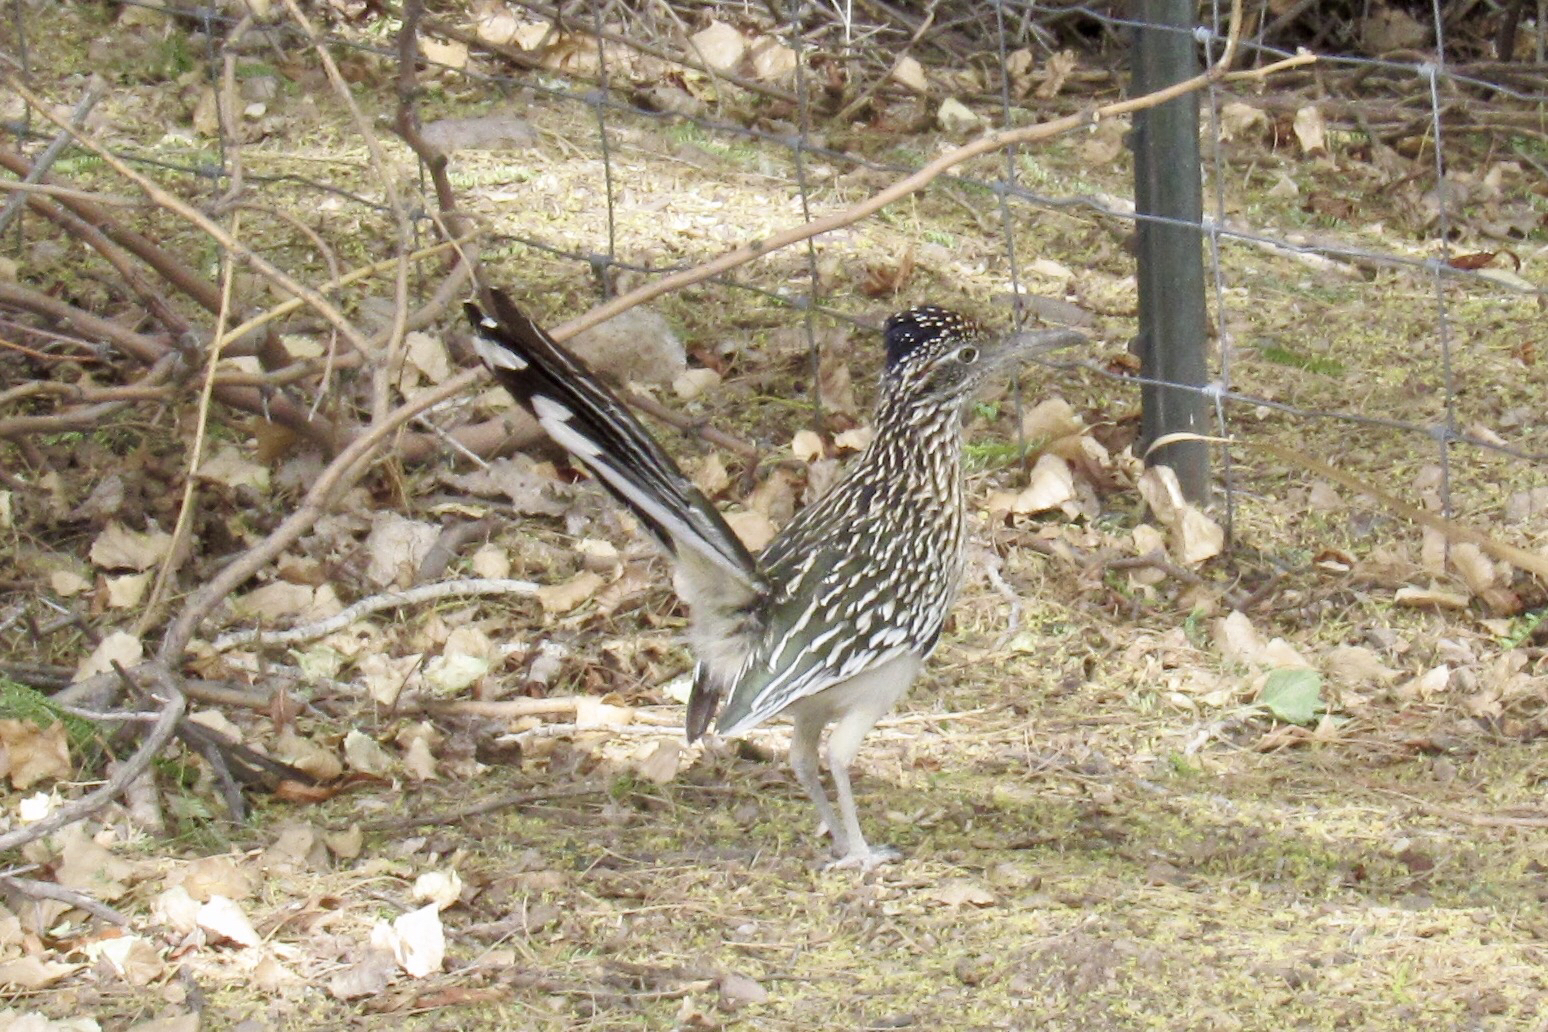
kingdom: Animalia
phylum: Chordata
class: Aves
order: Cuculiformes
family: Cuculidae
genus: Geococcyx
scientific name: Geococcyx californianus
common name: Greater roadrunner
